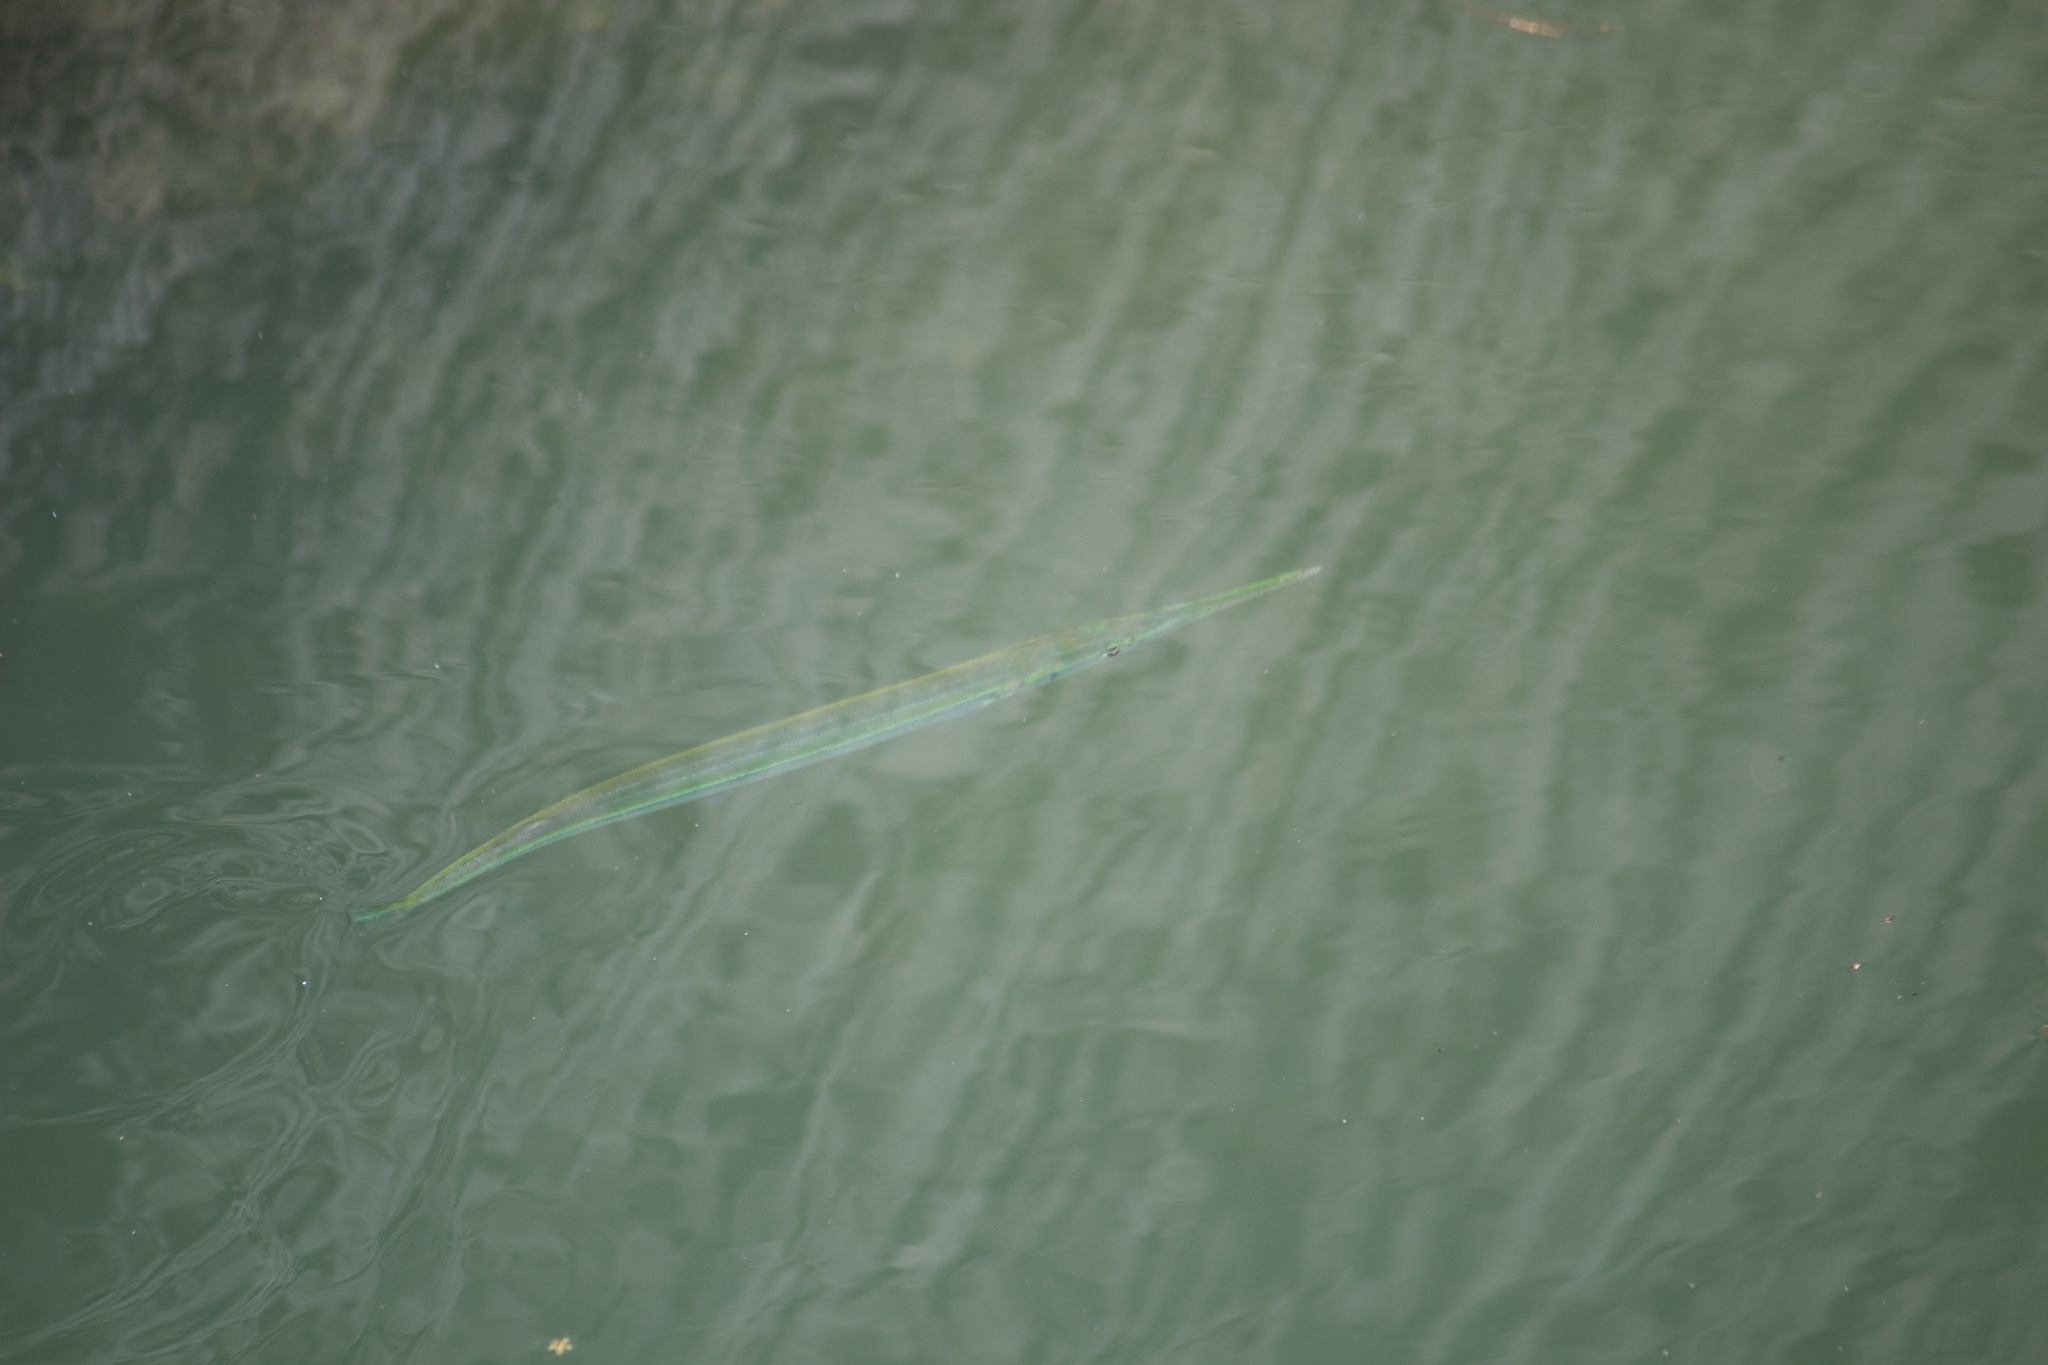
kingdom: Animalia
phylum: Chordata
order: Beloniformes
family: Belonidae
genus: Strongylura
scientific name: Strongylura marina
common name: Atlantic needlefish
